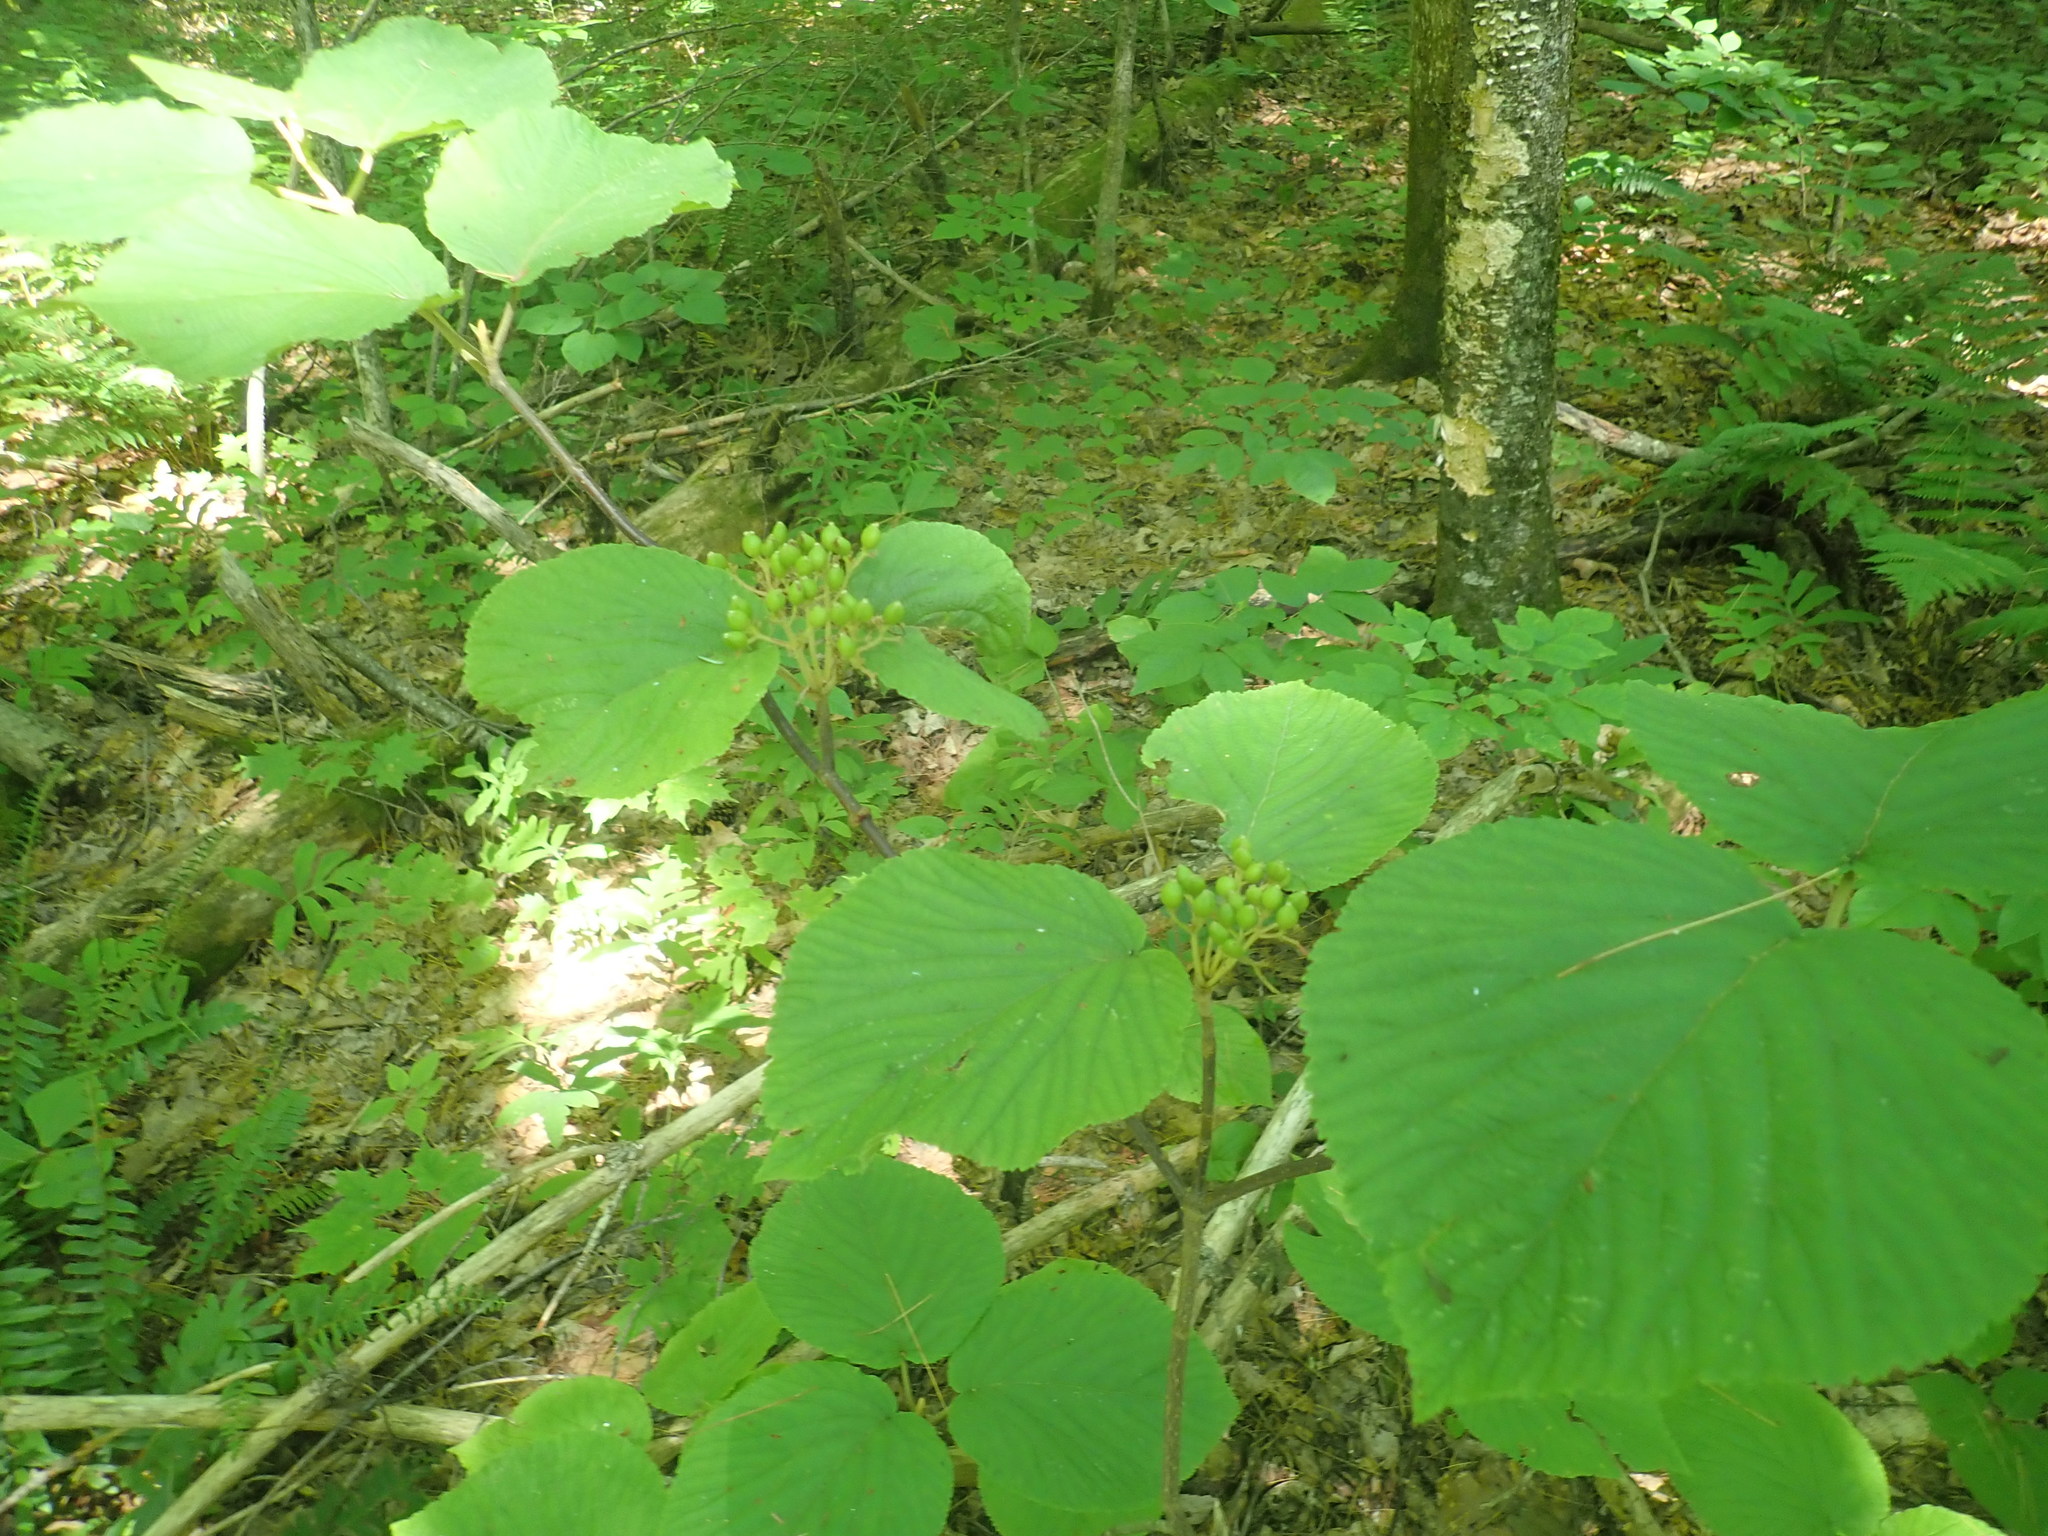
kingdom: Plantae
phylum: Tracheophyta
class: Magnoliopsida
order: Dipsacales
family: Viburnaceae
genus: Viburnum
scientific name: Viburnum lantanoides
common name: Hobblebush
